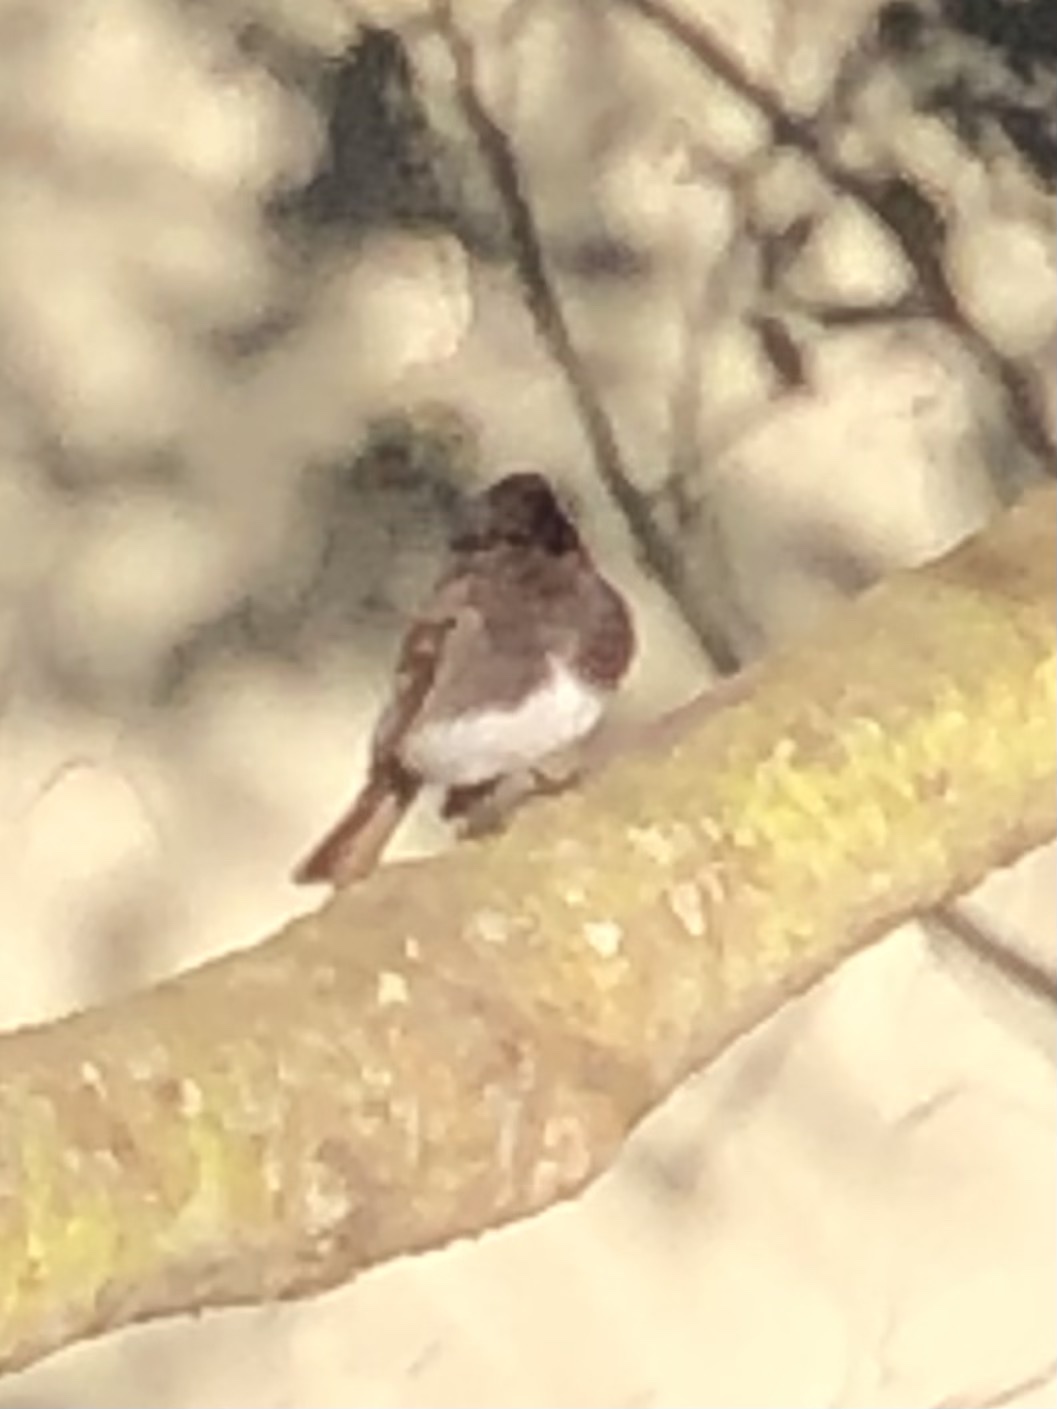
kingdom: Animalia
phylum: Chordata
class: Aves
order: Passeriformes
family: Tyrannidae
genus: Sayornis
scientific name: Sayornis nigricans
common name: Black phoebe
